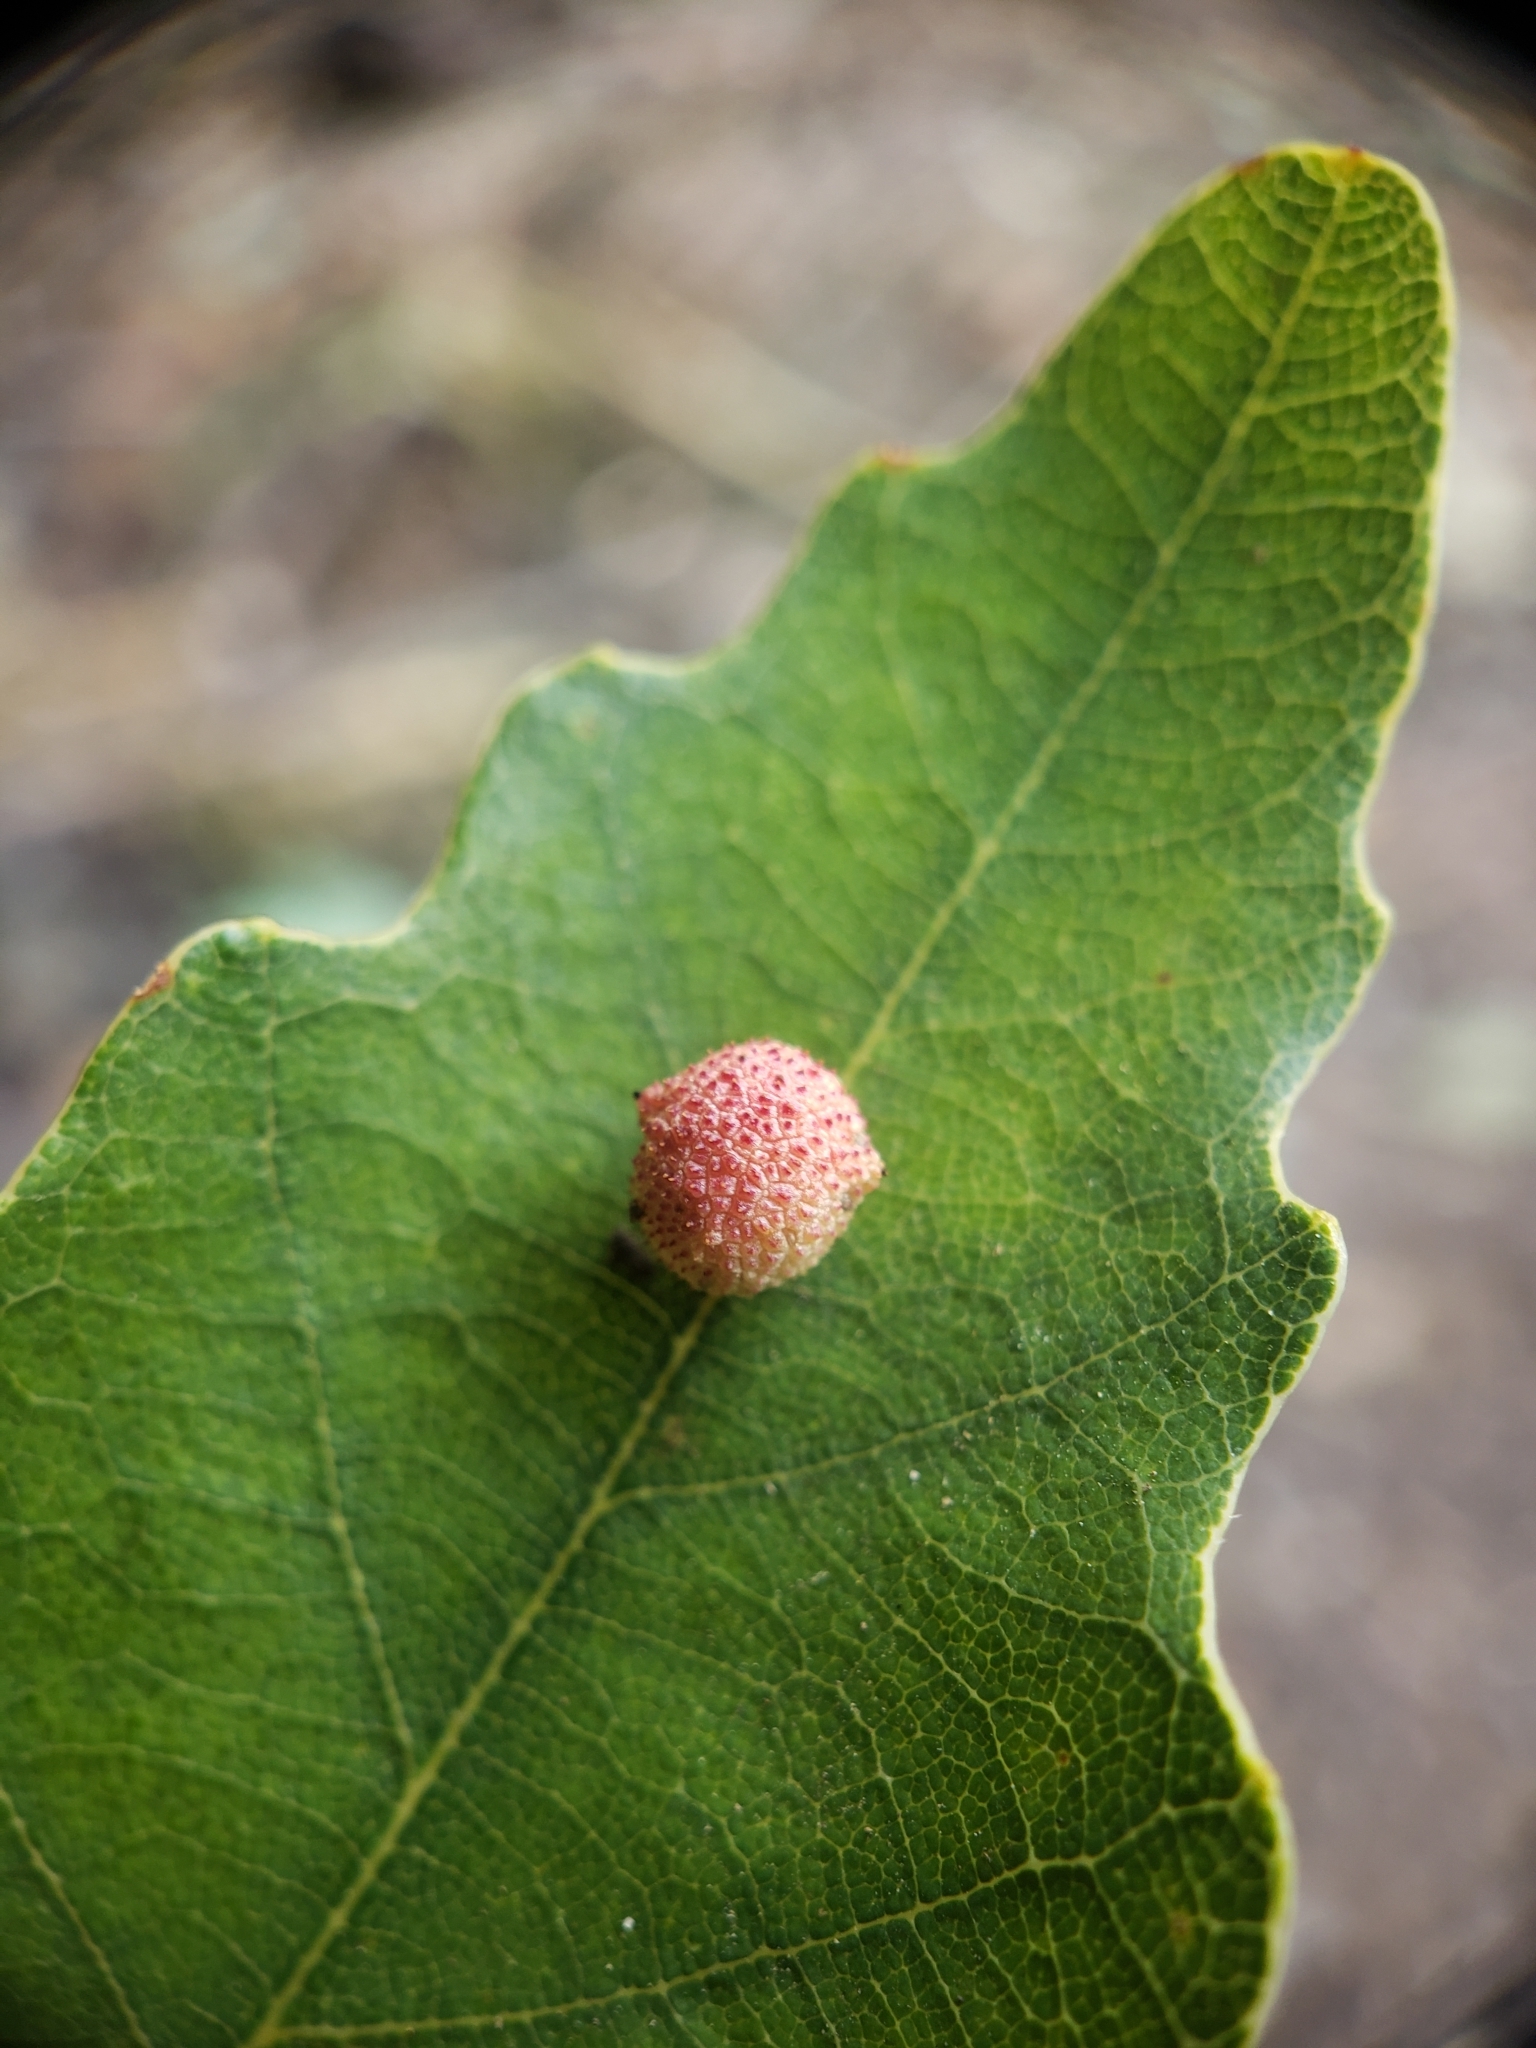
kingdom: Animalia
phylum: Arthropoda
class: Insecta
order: Hymenoptera
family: Cynipidae
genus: Acraspis
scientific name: Acraspis quercushirta
